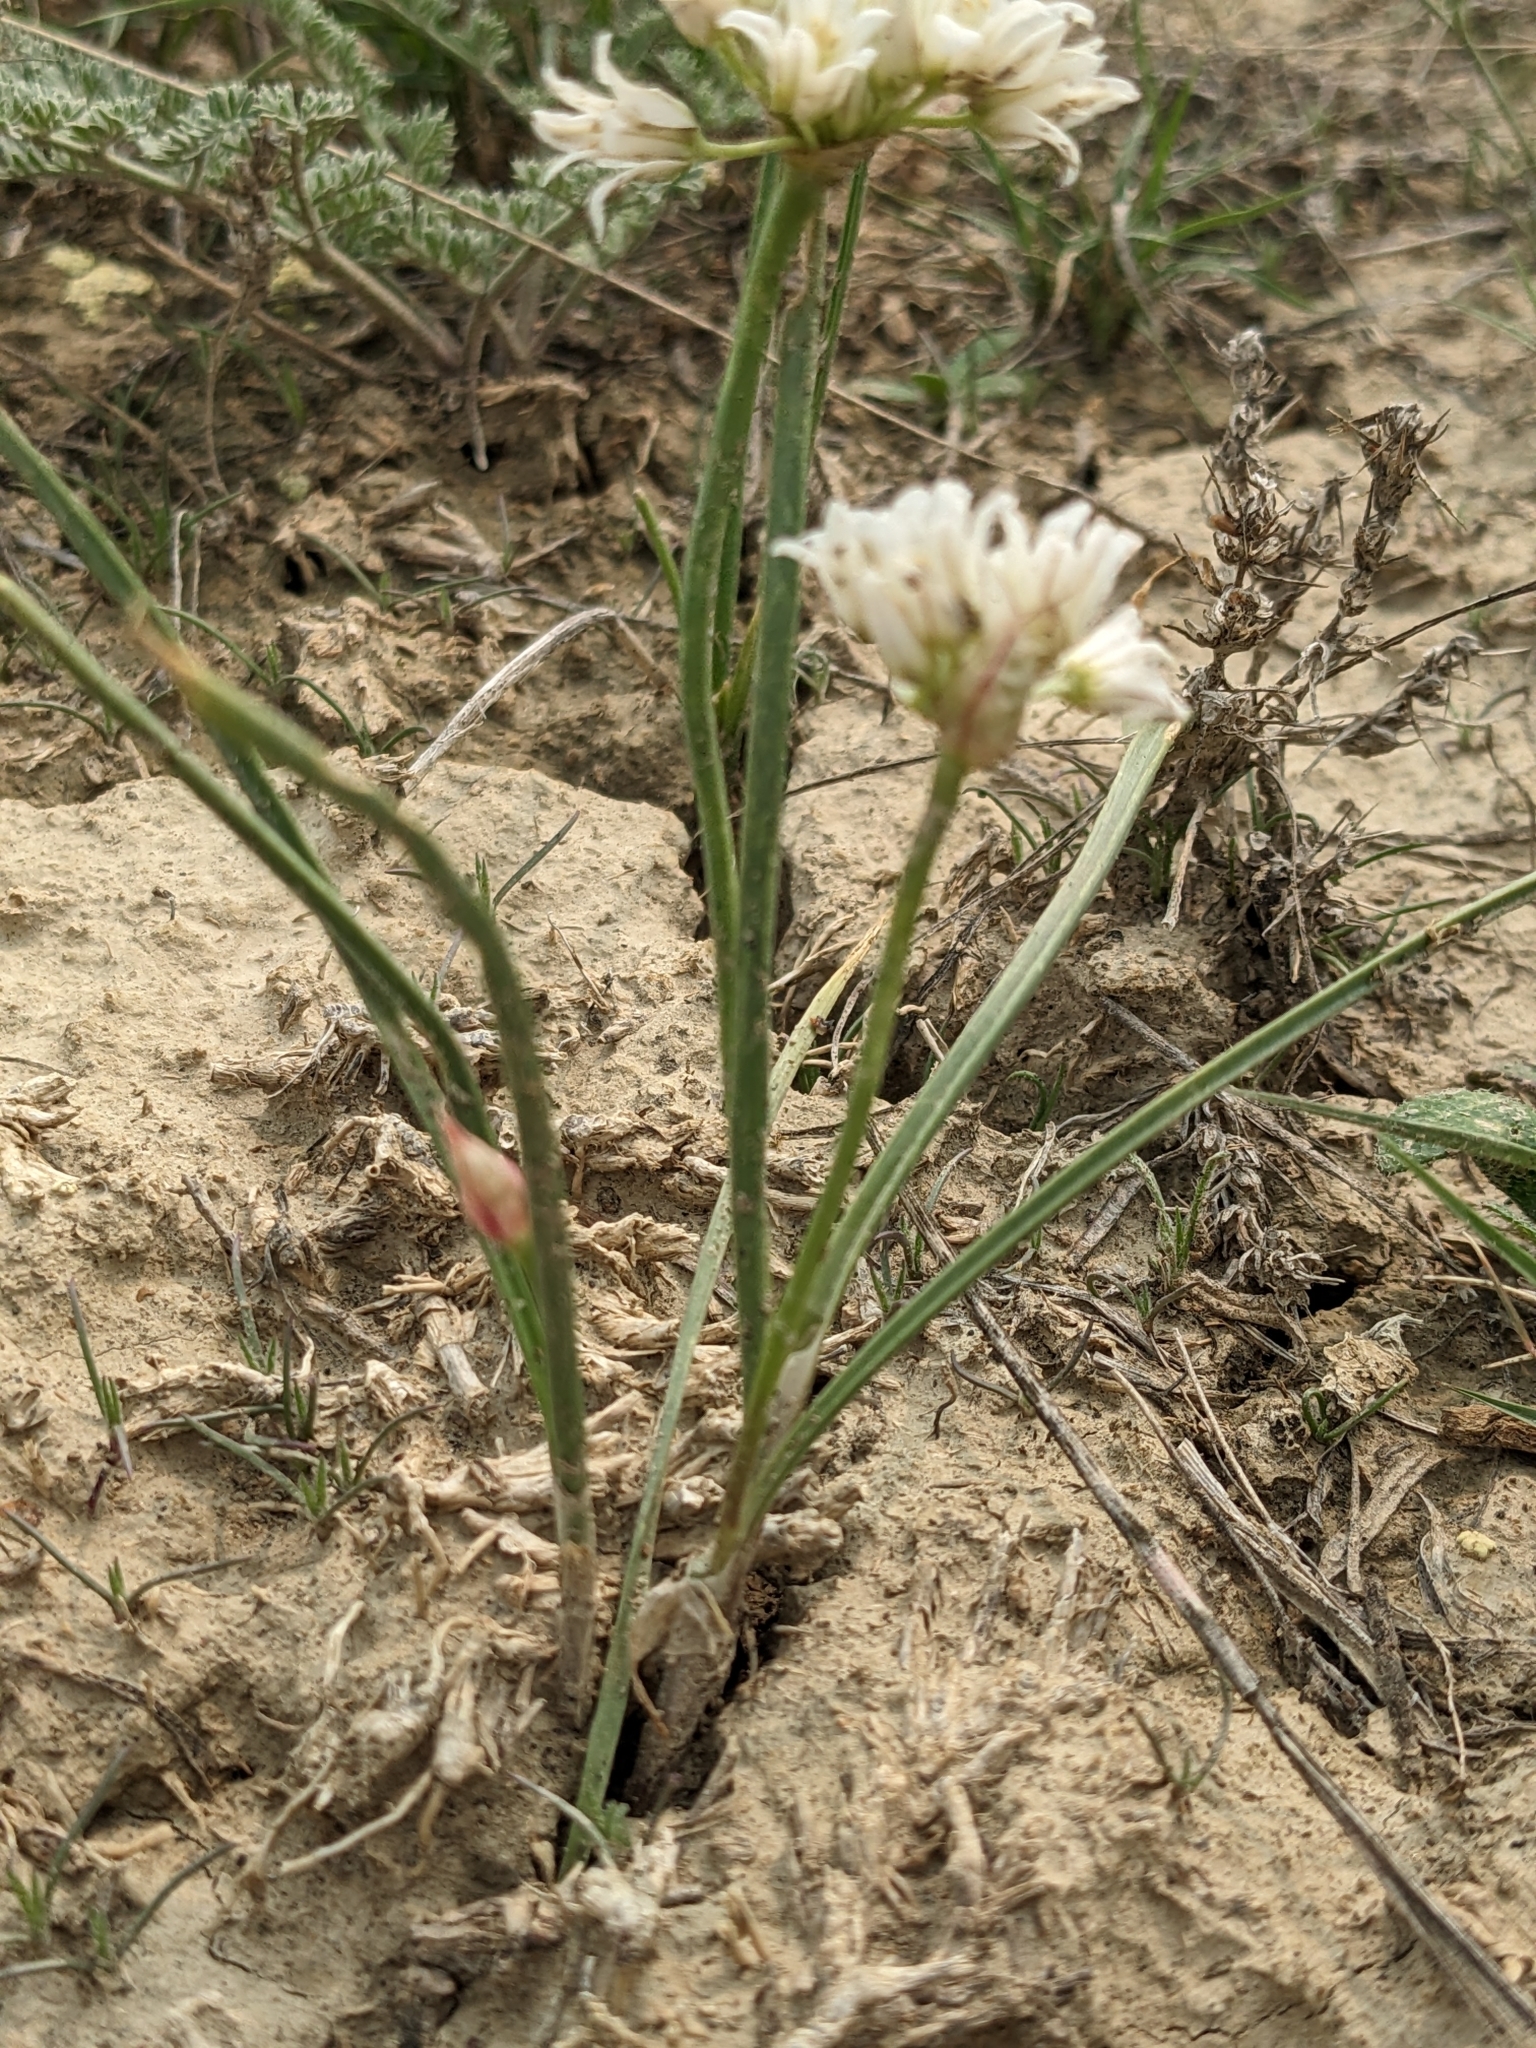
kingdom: Plantae
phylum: Tracheophyta
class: Liliopsida
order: Asparagales
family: Amaryllidaceae
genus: Allium
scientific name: Allium textile
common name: Prairie onion
